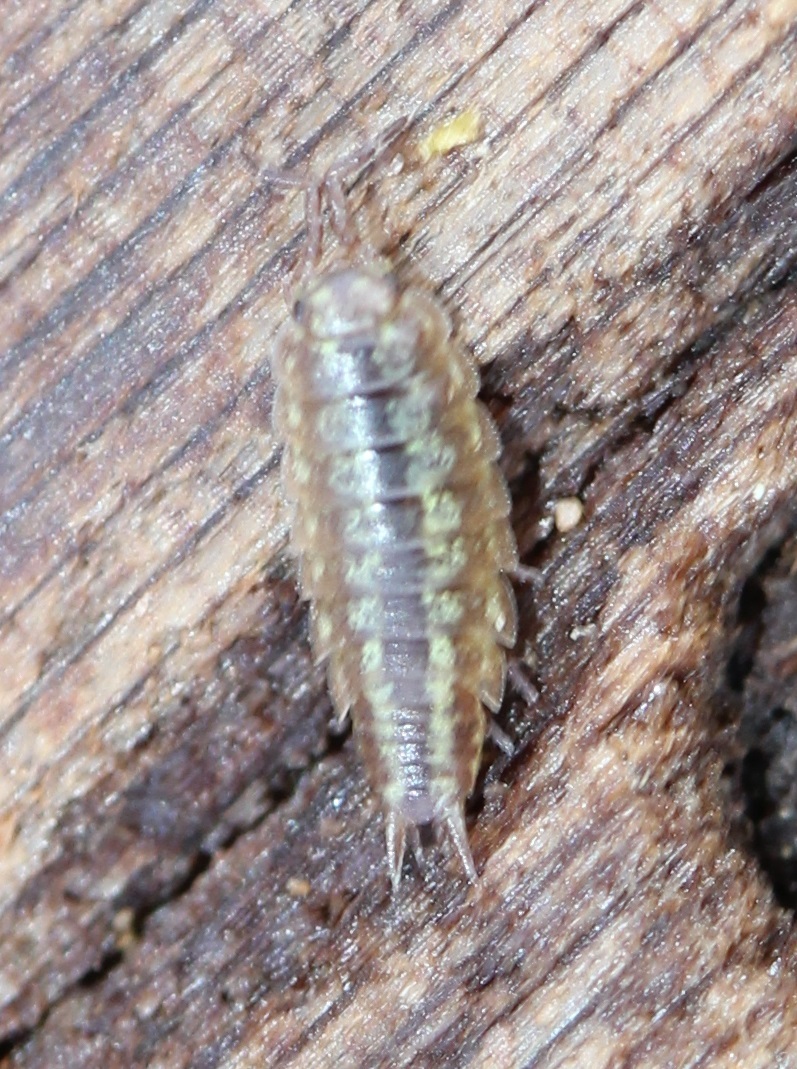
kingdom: Animalia
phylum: Arthropoda
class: Malacostraca
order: Isopoda
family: Halophilosciidae
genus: Littorophiloscia
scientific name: Littorophiloscia vittata
